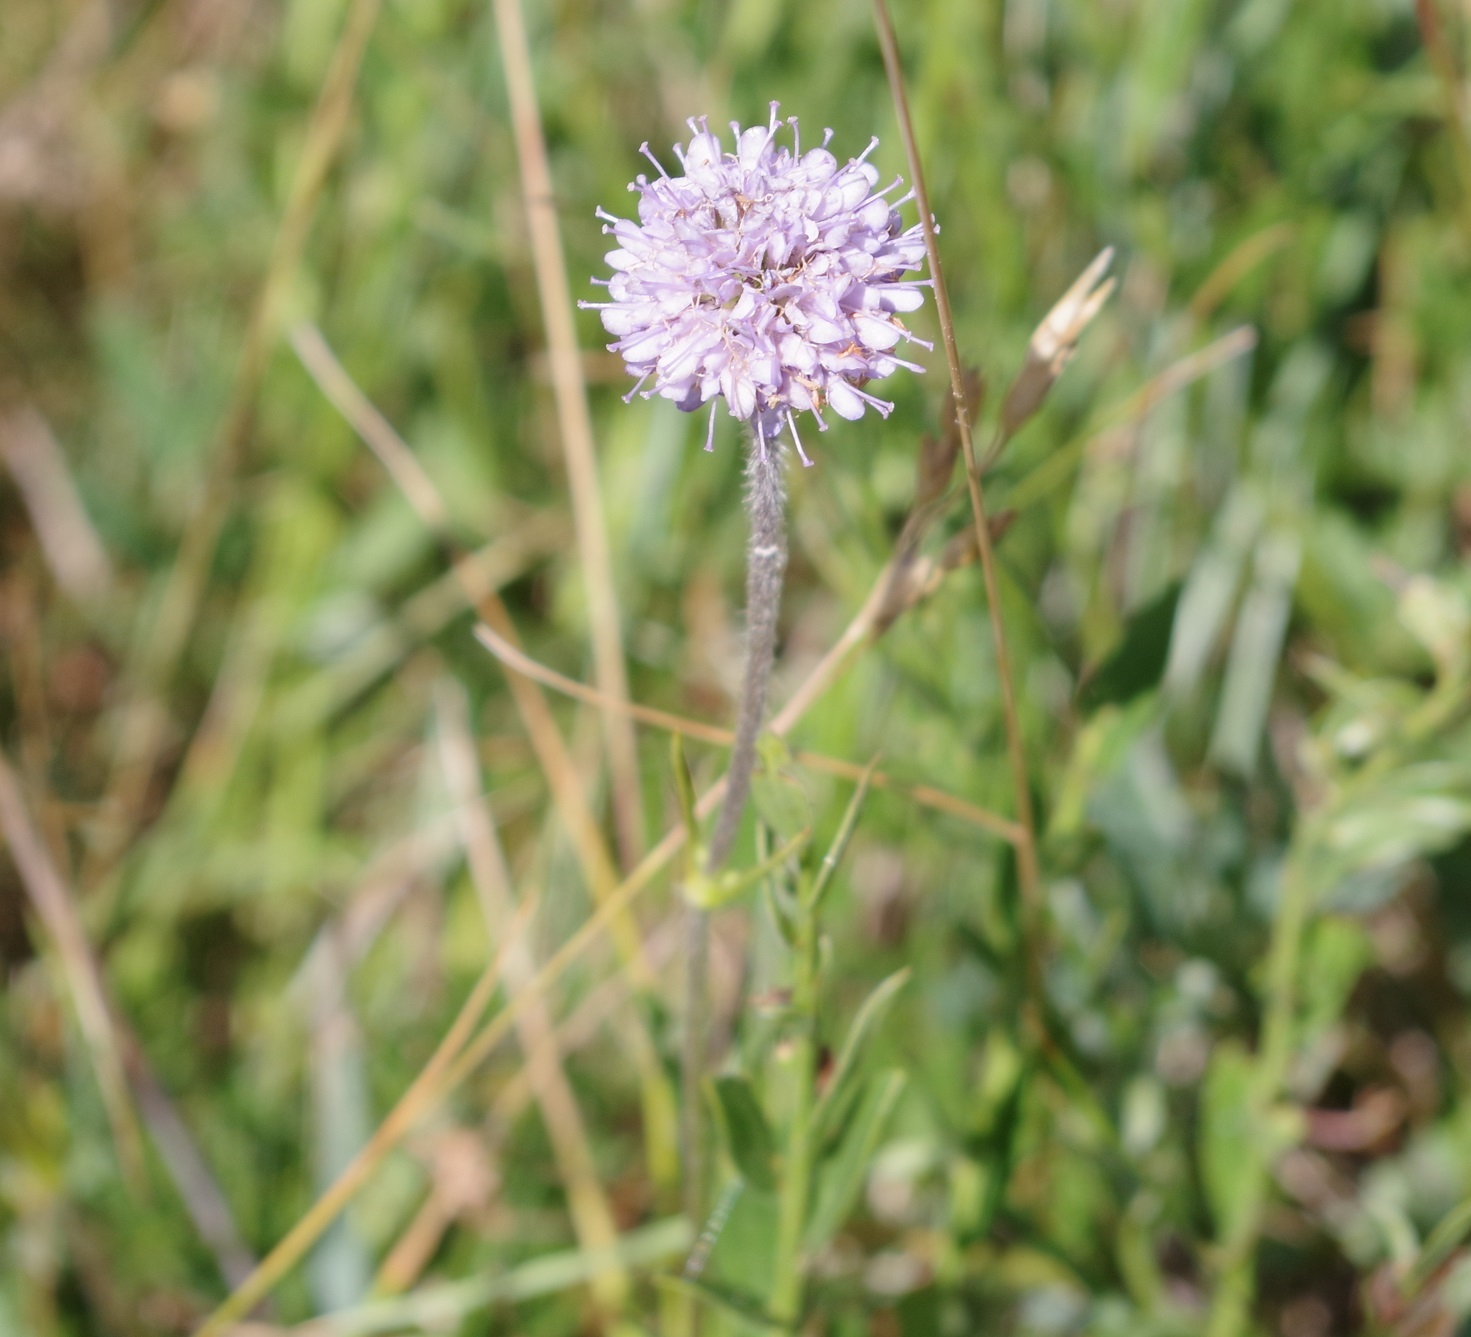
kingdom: Plantae
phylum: Tracheophyta
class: Magnoliopsida
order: Dipsacales
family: Caprifoliaceae
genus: Succisa
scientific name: Succisa pratensis
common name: Devil's-bit
